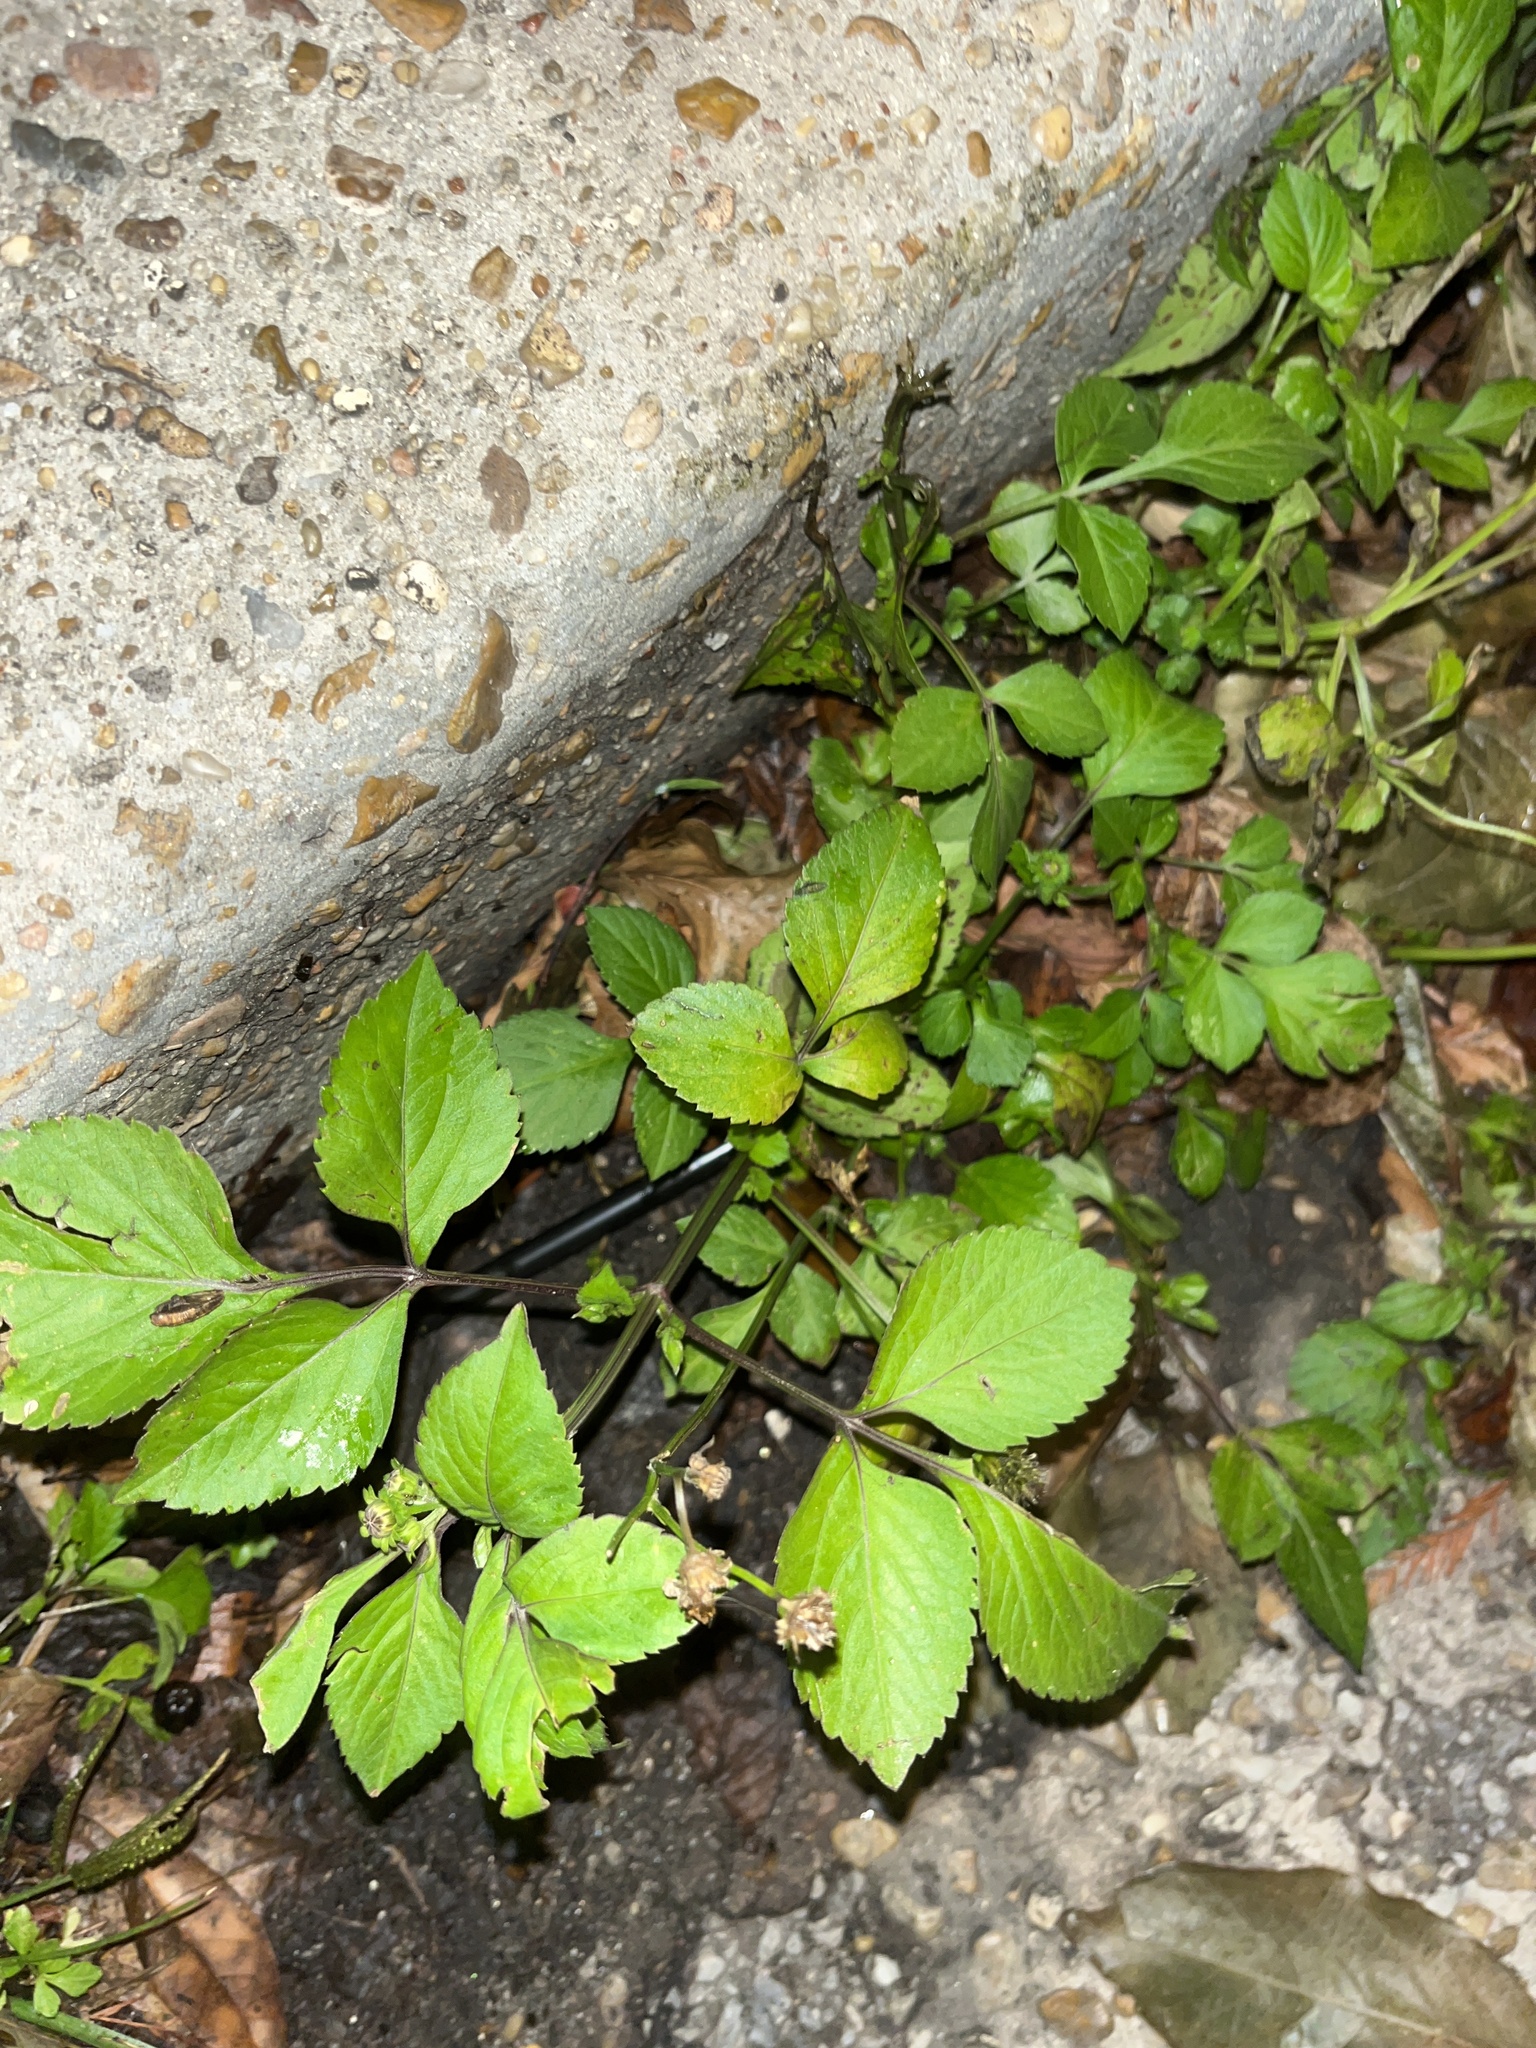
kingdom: Plantae
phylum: Tracheophyta
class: Magnoliopsida
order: Asterales
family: Asteraceae
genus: Bidens
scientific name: Bidens alba
